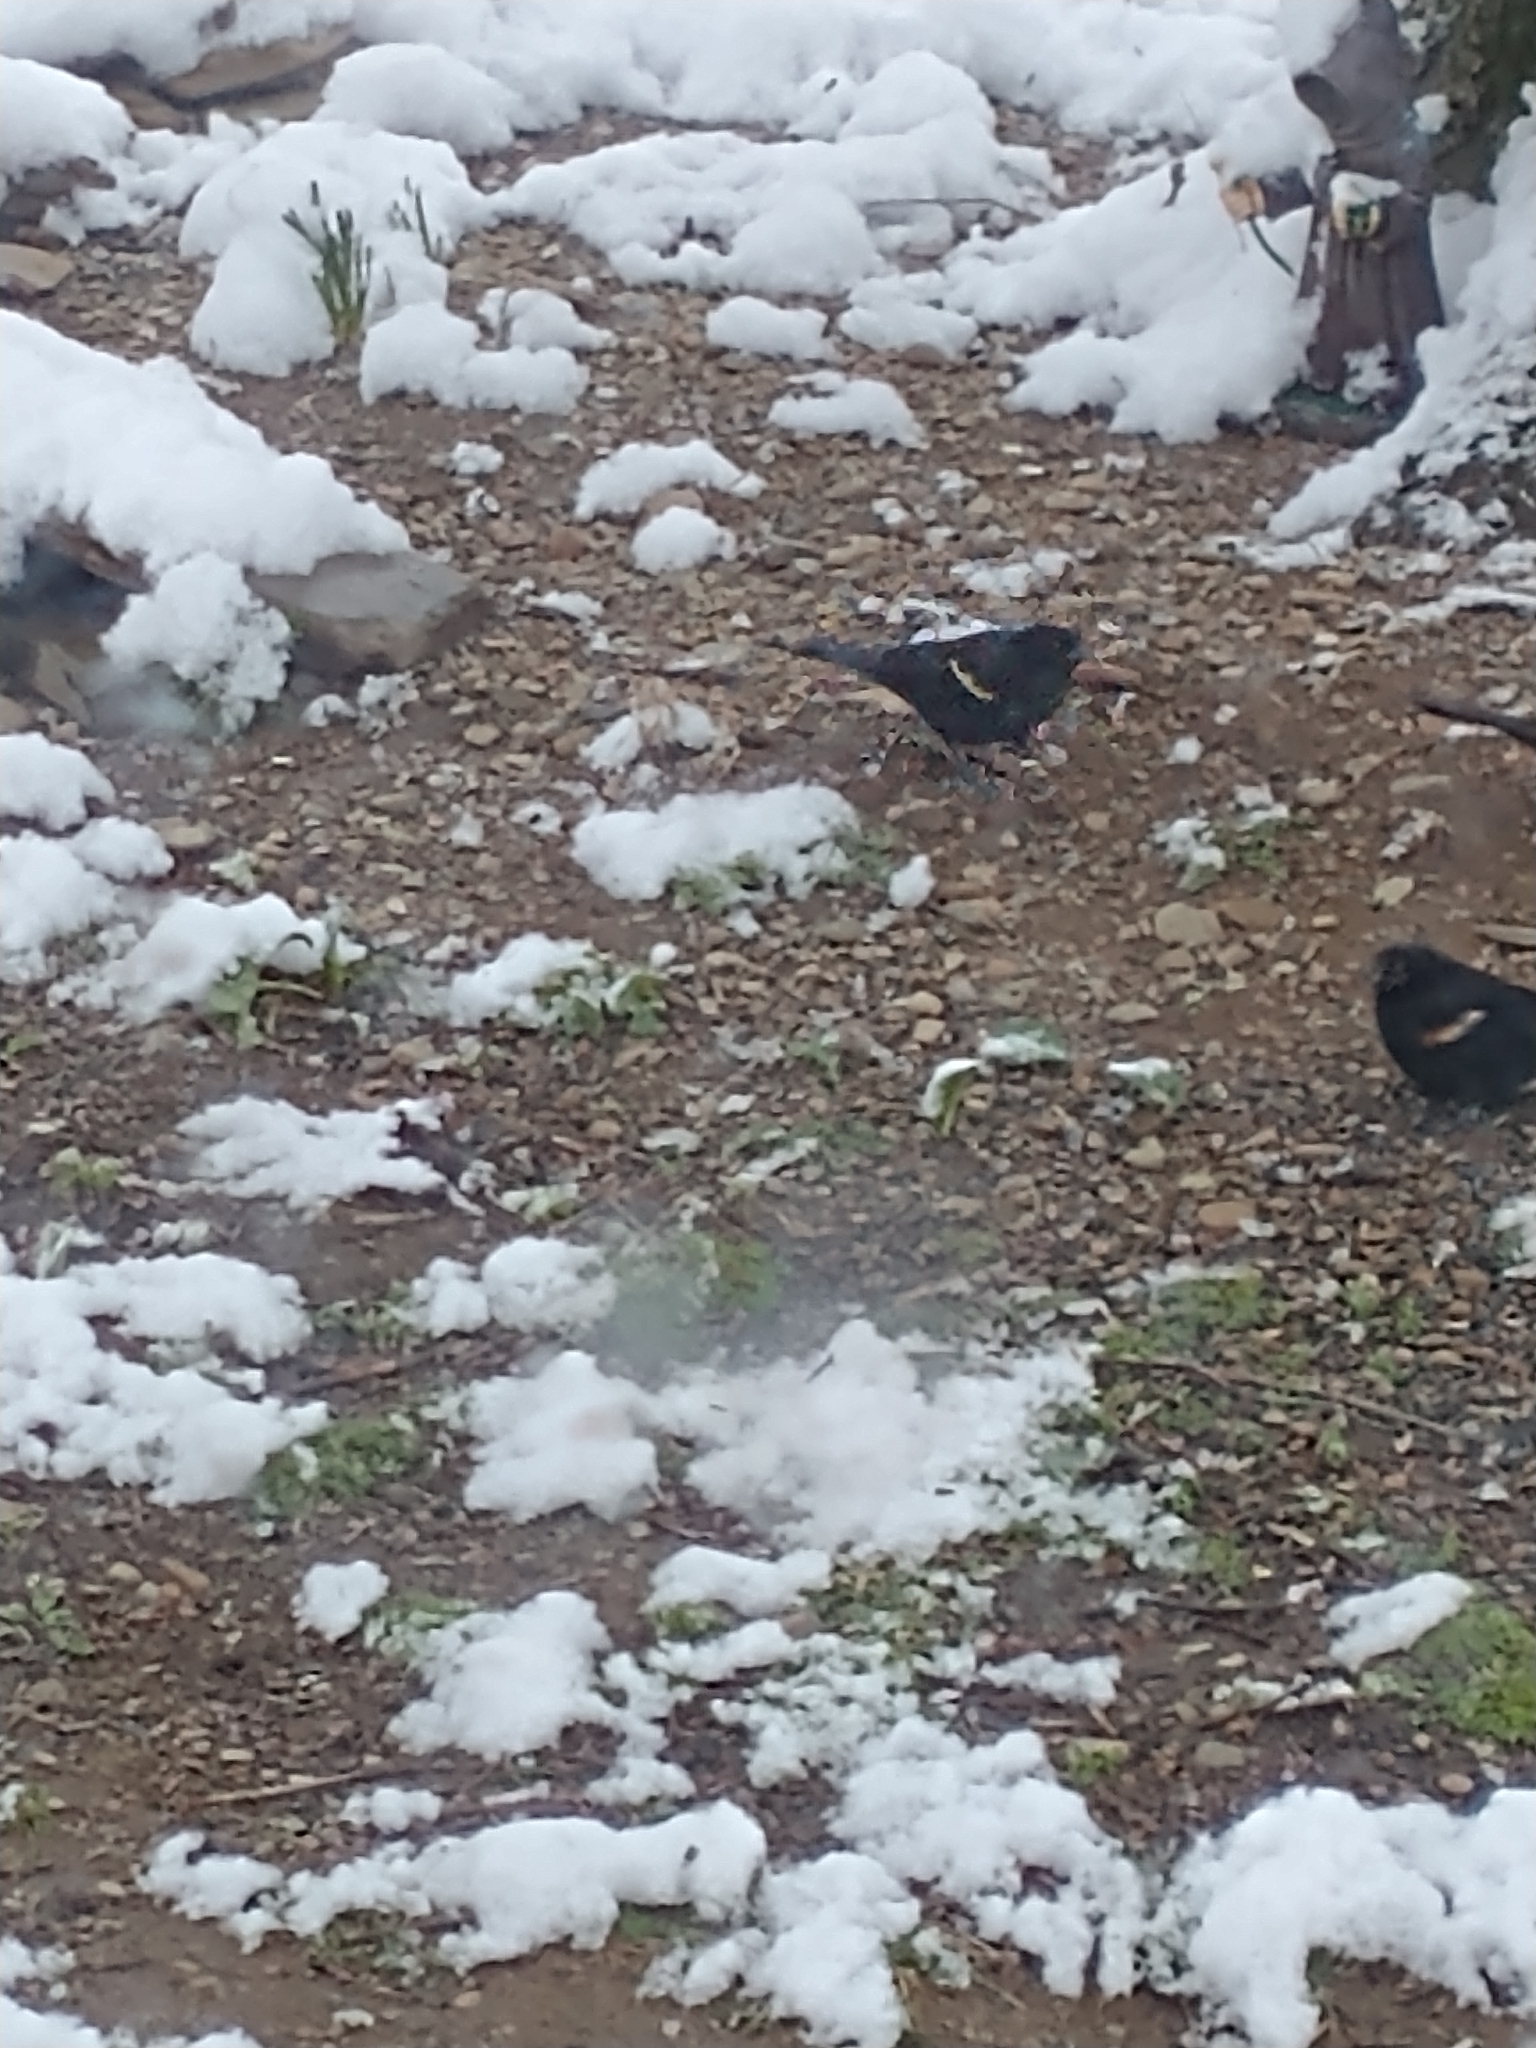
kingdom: Animalia
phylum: Chordata
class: Aves
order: Passeriformes
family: Icteridae
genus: Agelaius
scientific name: Agelaius phoeniceus
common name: Red-winged blackbird
